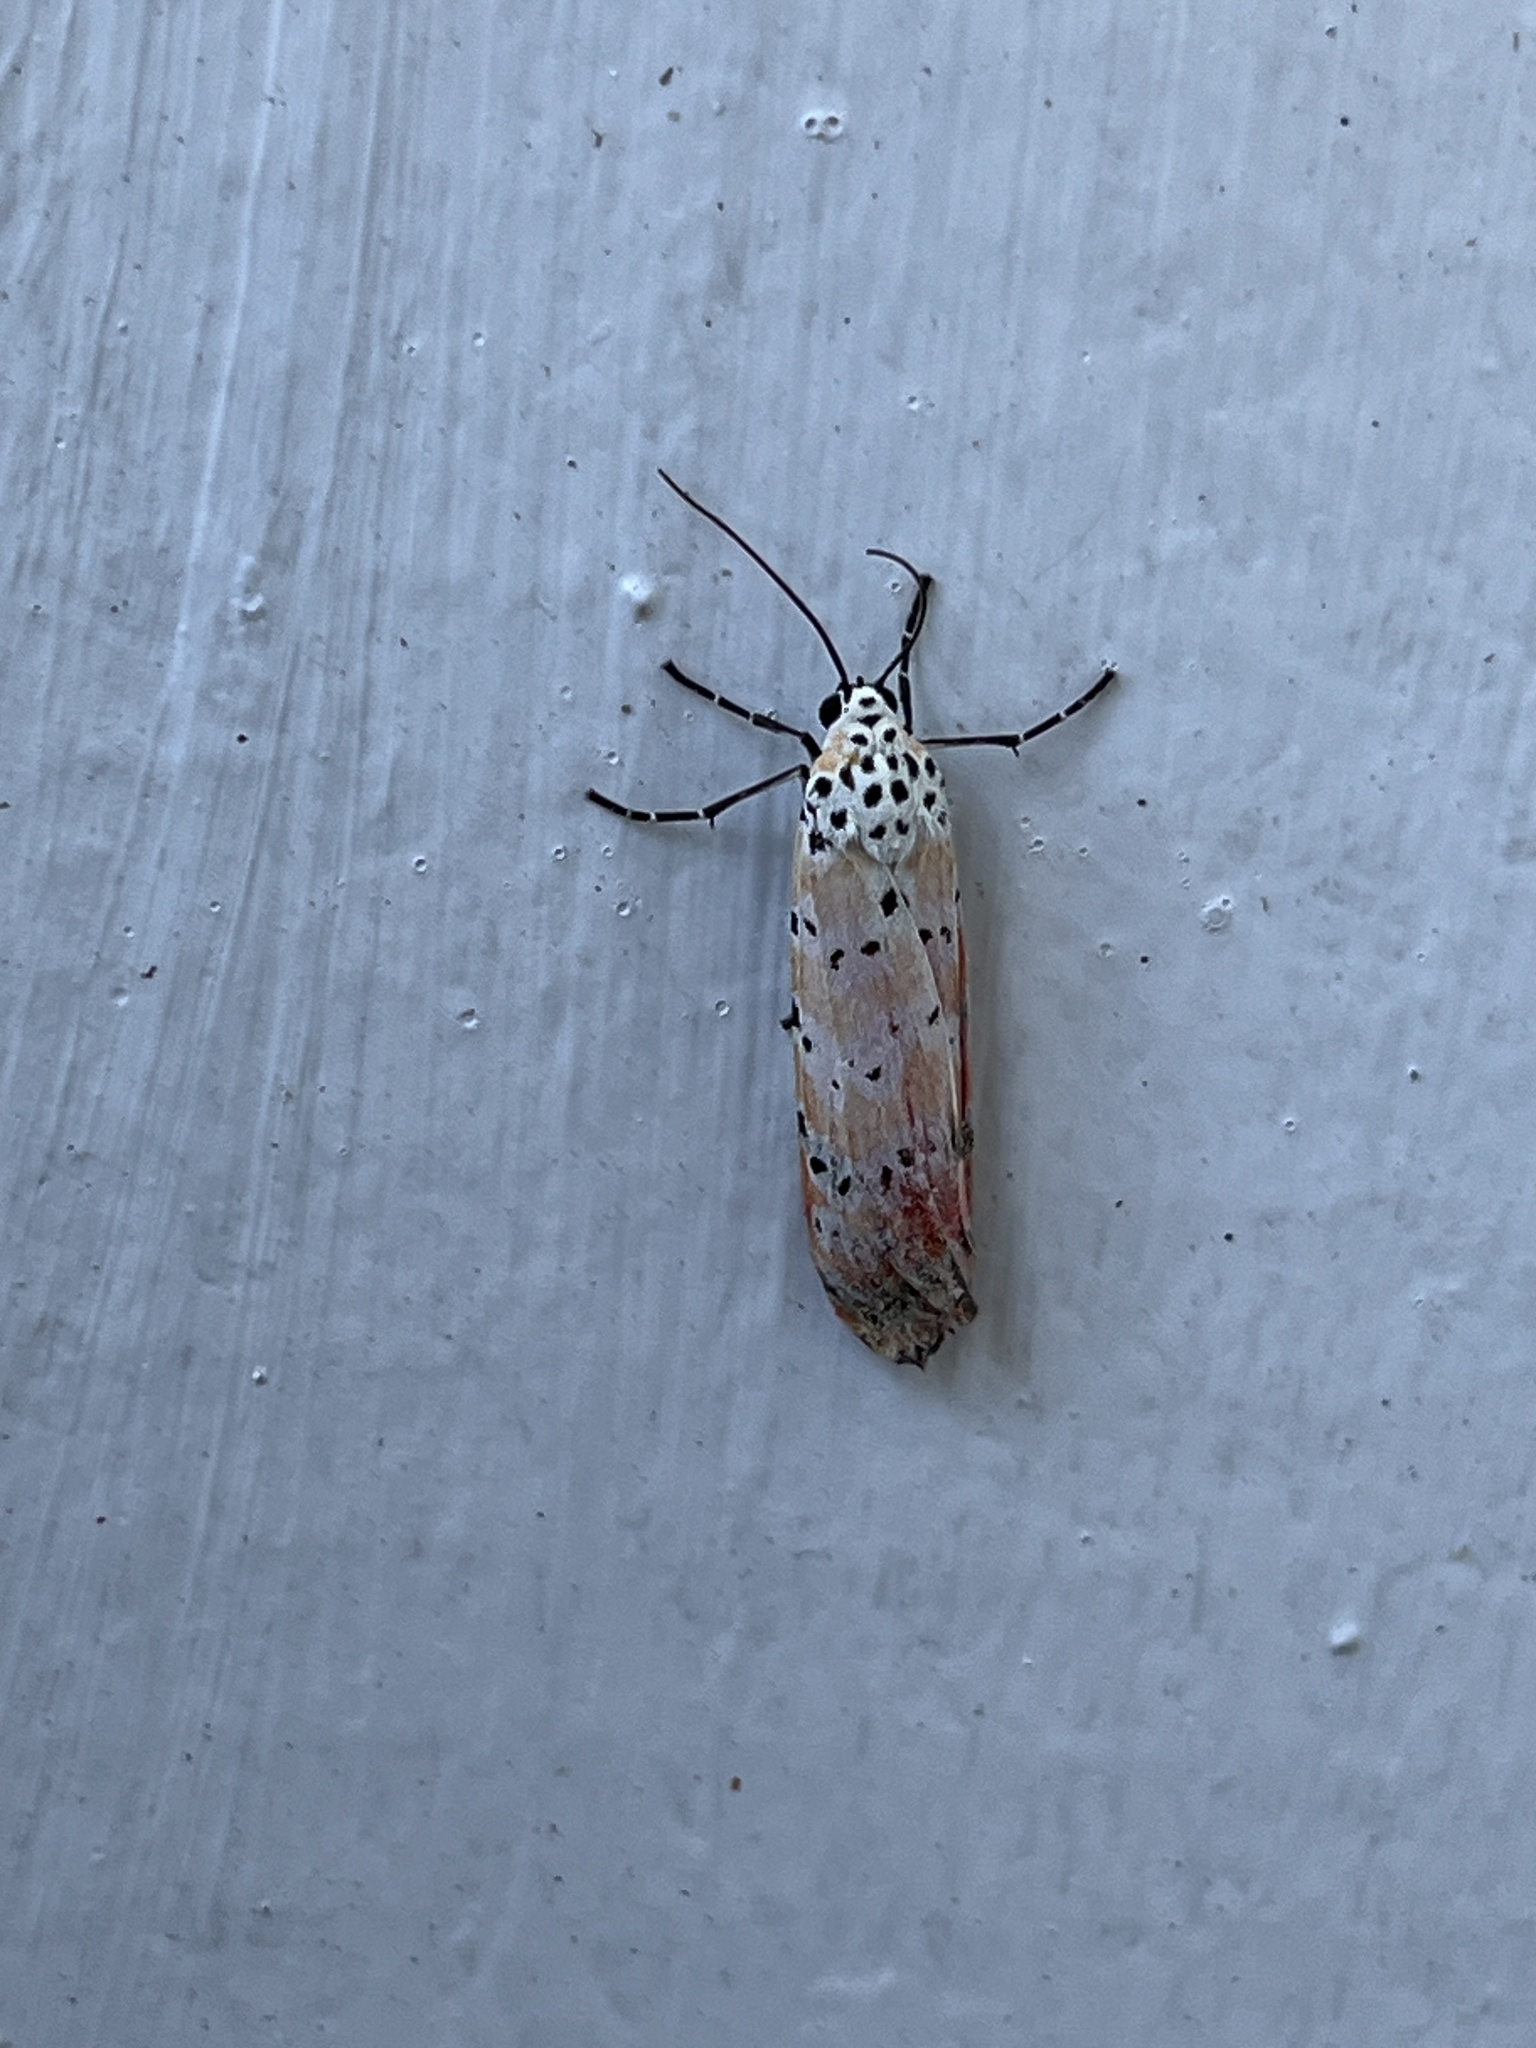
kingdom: Animalia
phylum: Arthropoda
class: Insecta
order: Lepidoptera
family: Erebidae
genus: Utetheisa
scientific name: Utetheisa ornatrix
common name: Beautiful utetheisa
